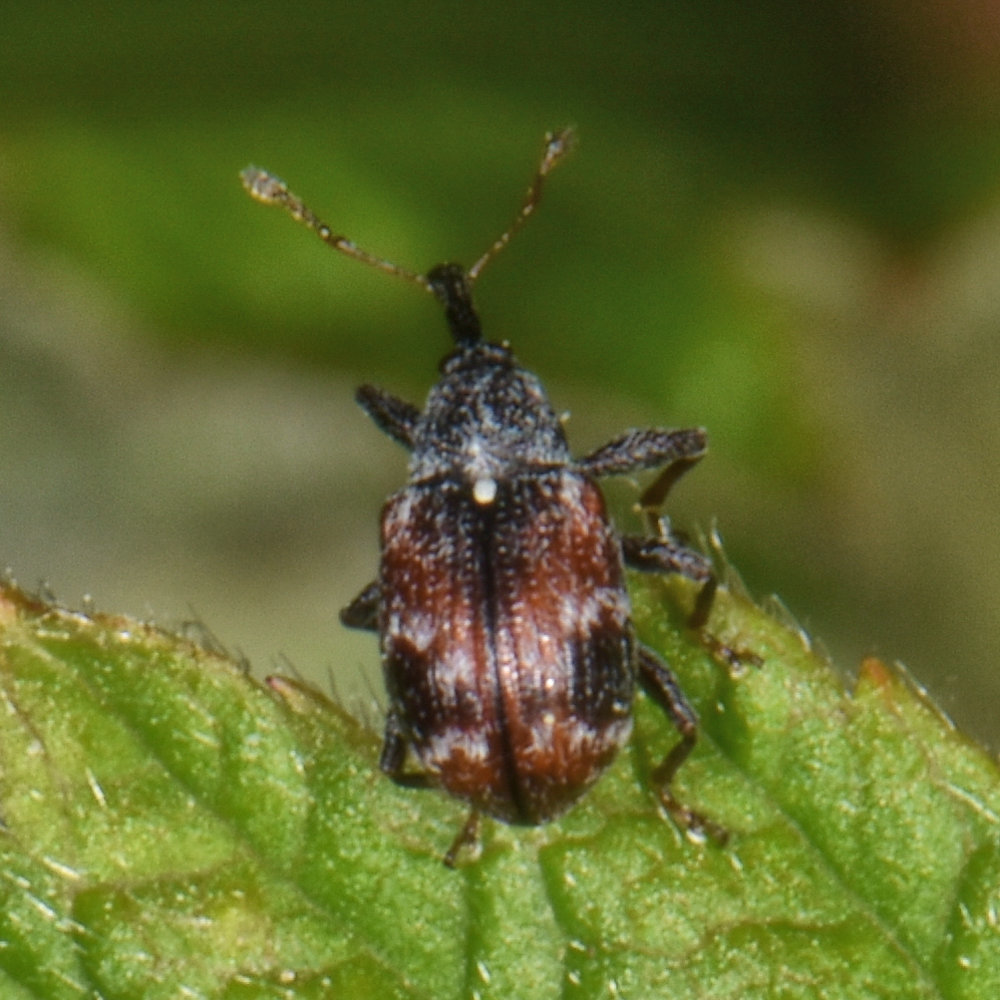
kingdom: Animalia
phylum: Arthropoda
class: Insecta
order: Coleoptera
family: Curculionidae
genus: Anthonomus
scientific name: Anthonomus signatus
